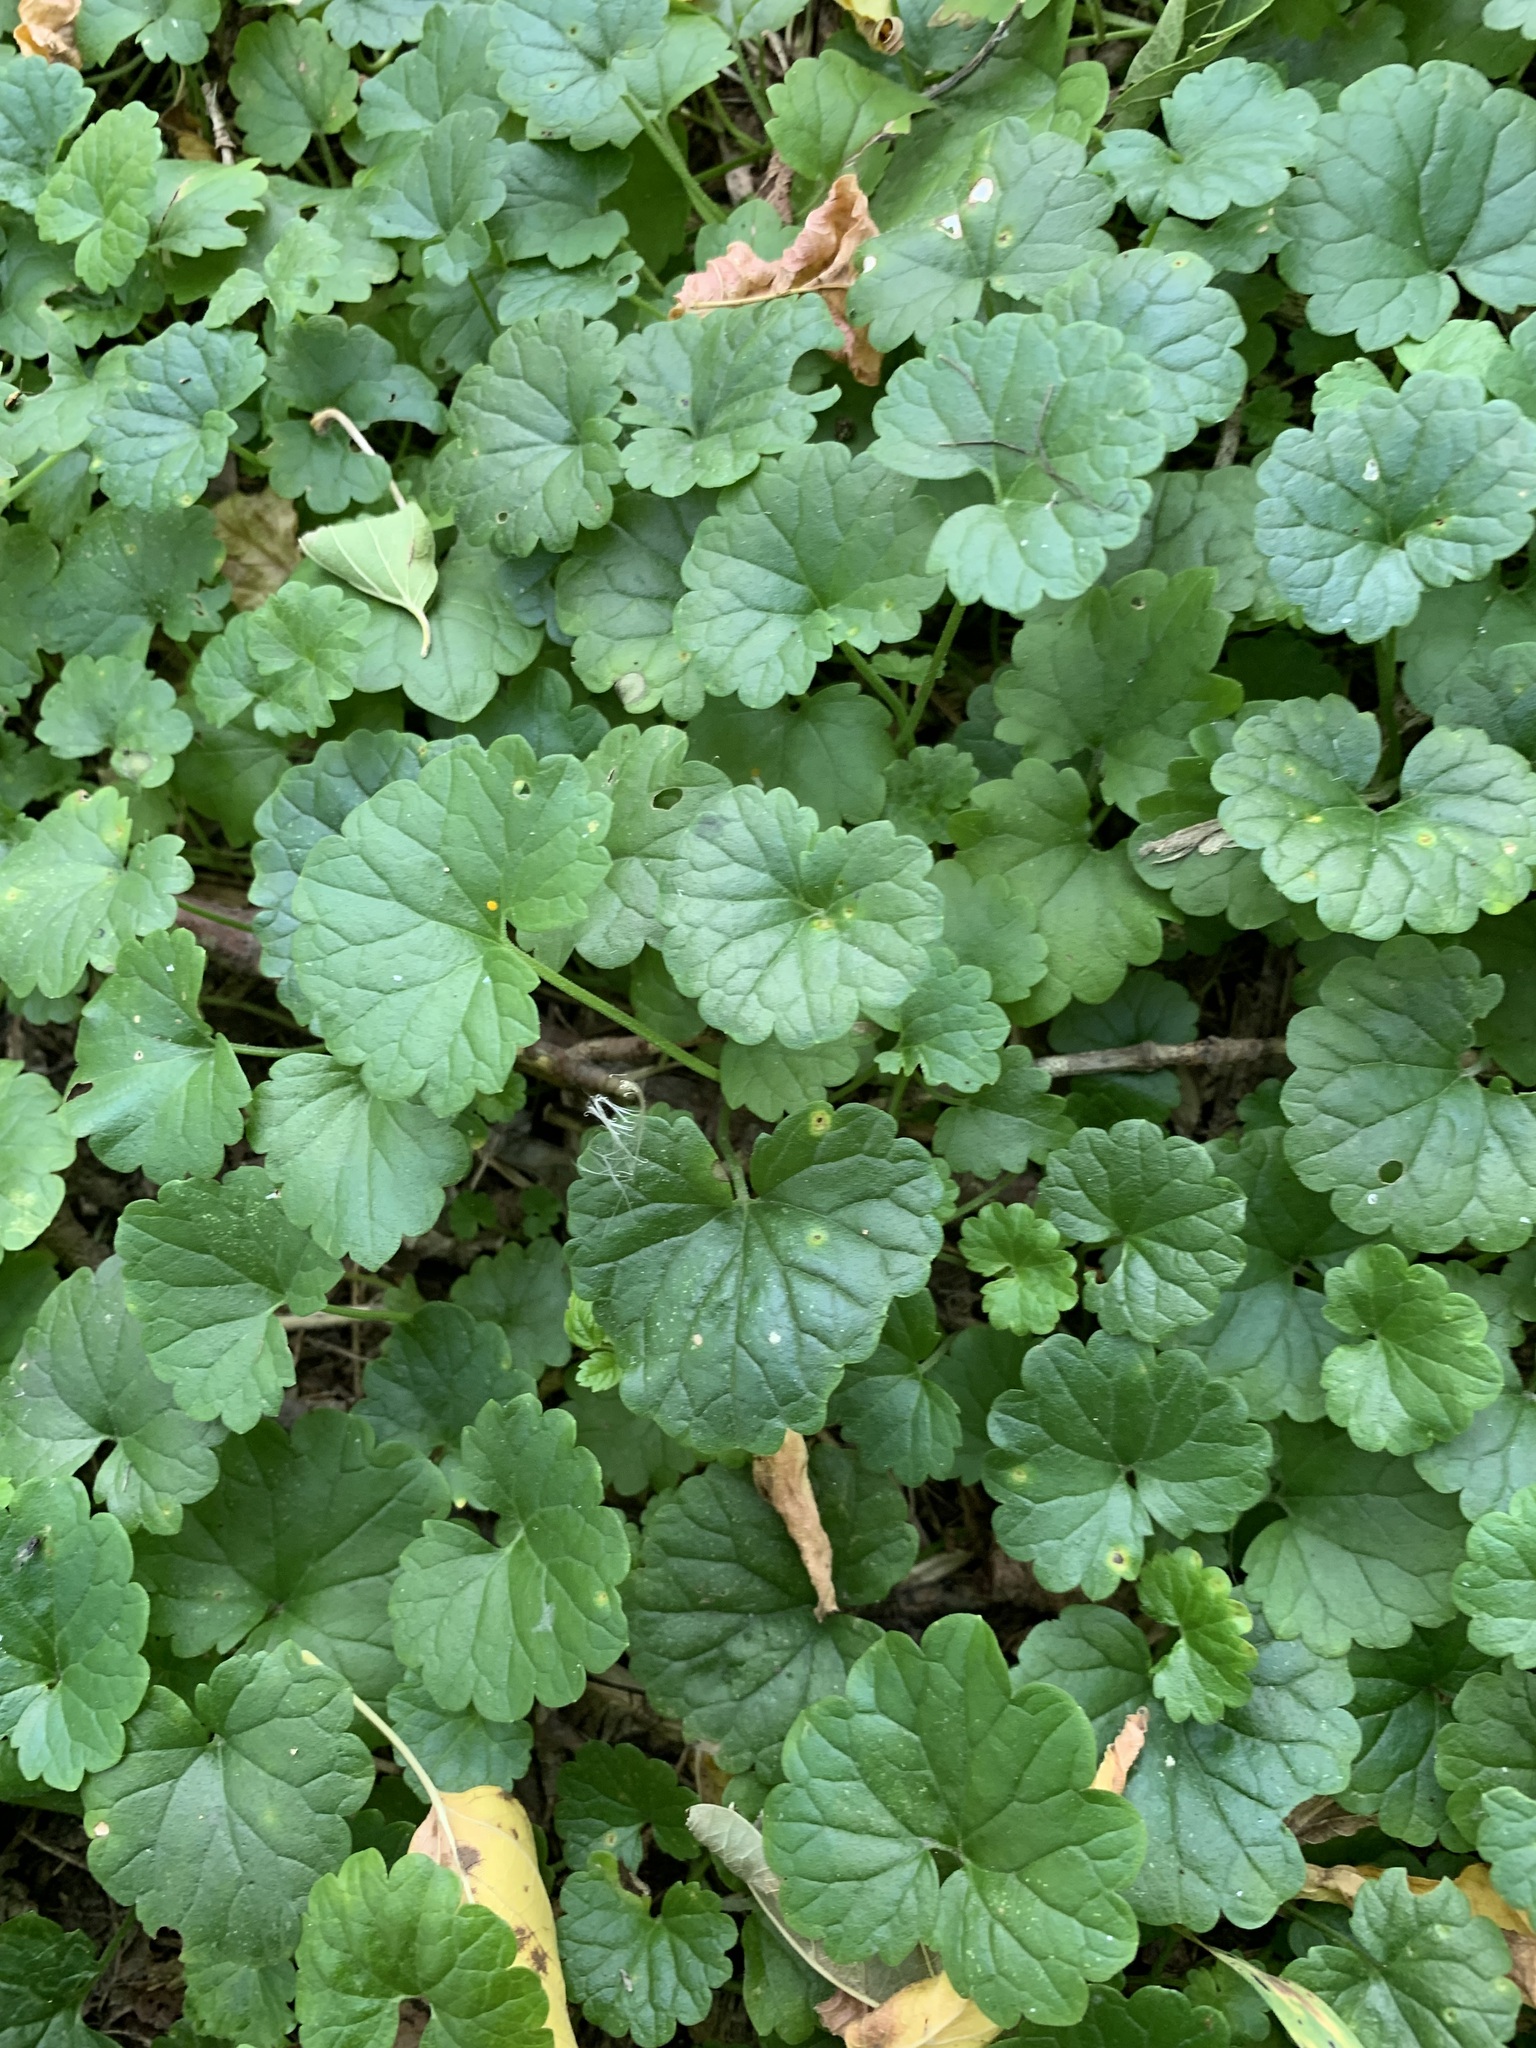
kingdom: Plantae
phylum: Tracheophyta
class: Magnoliopsida
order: Lamiales
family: Lamiaceae
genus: Glechoma
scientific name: Glechoma hederacea
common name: Ground ivy
